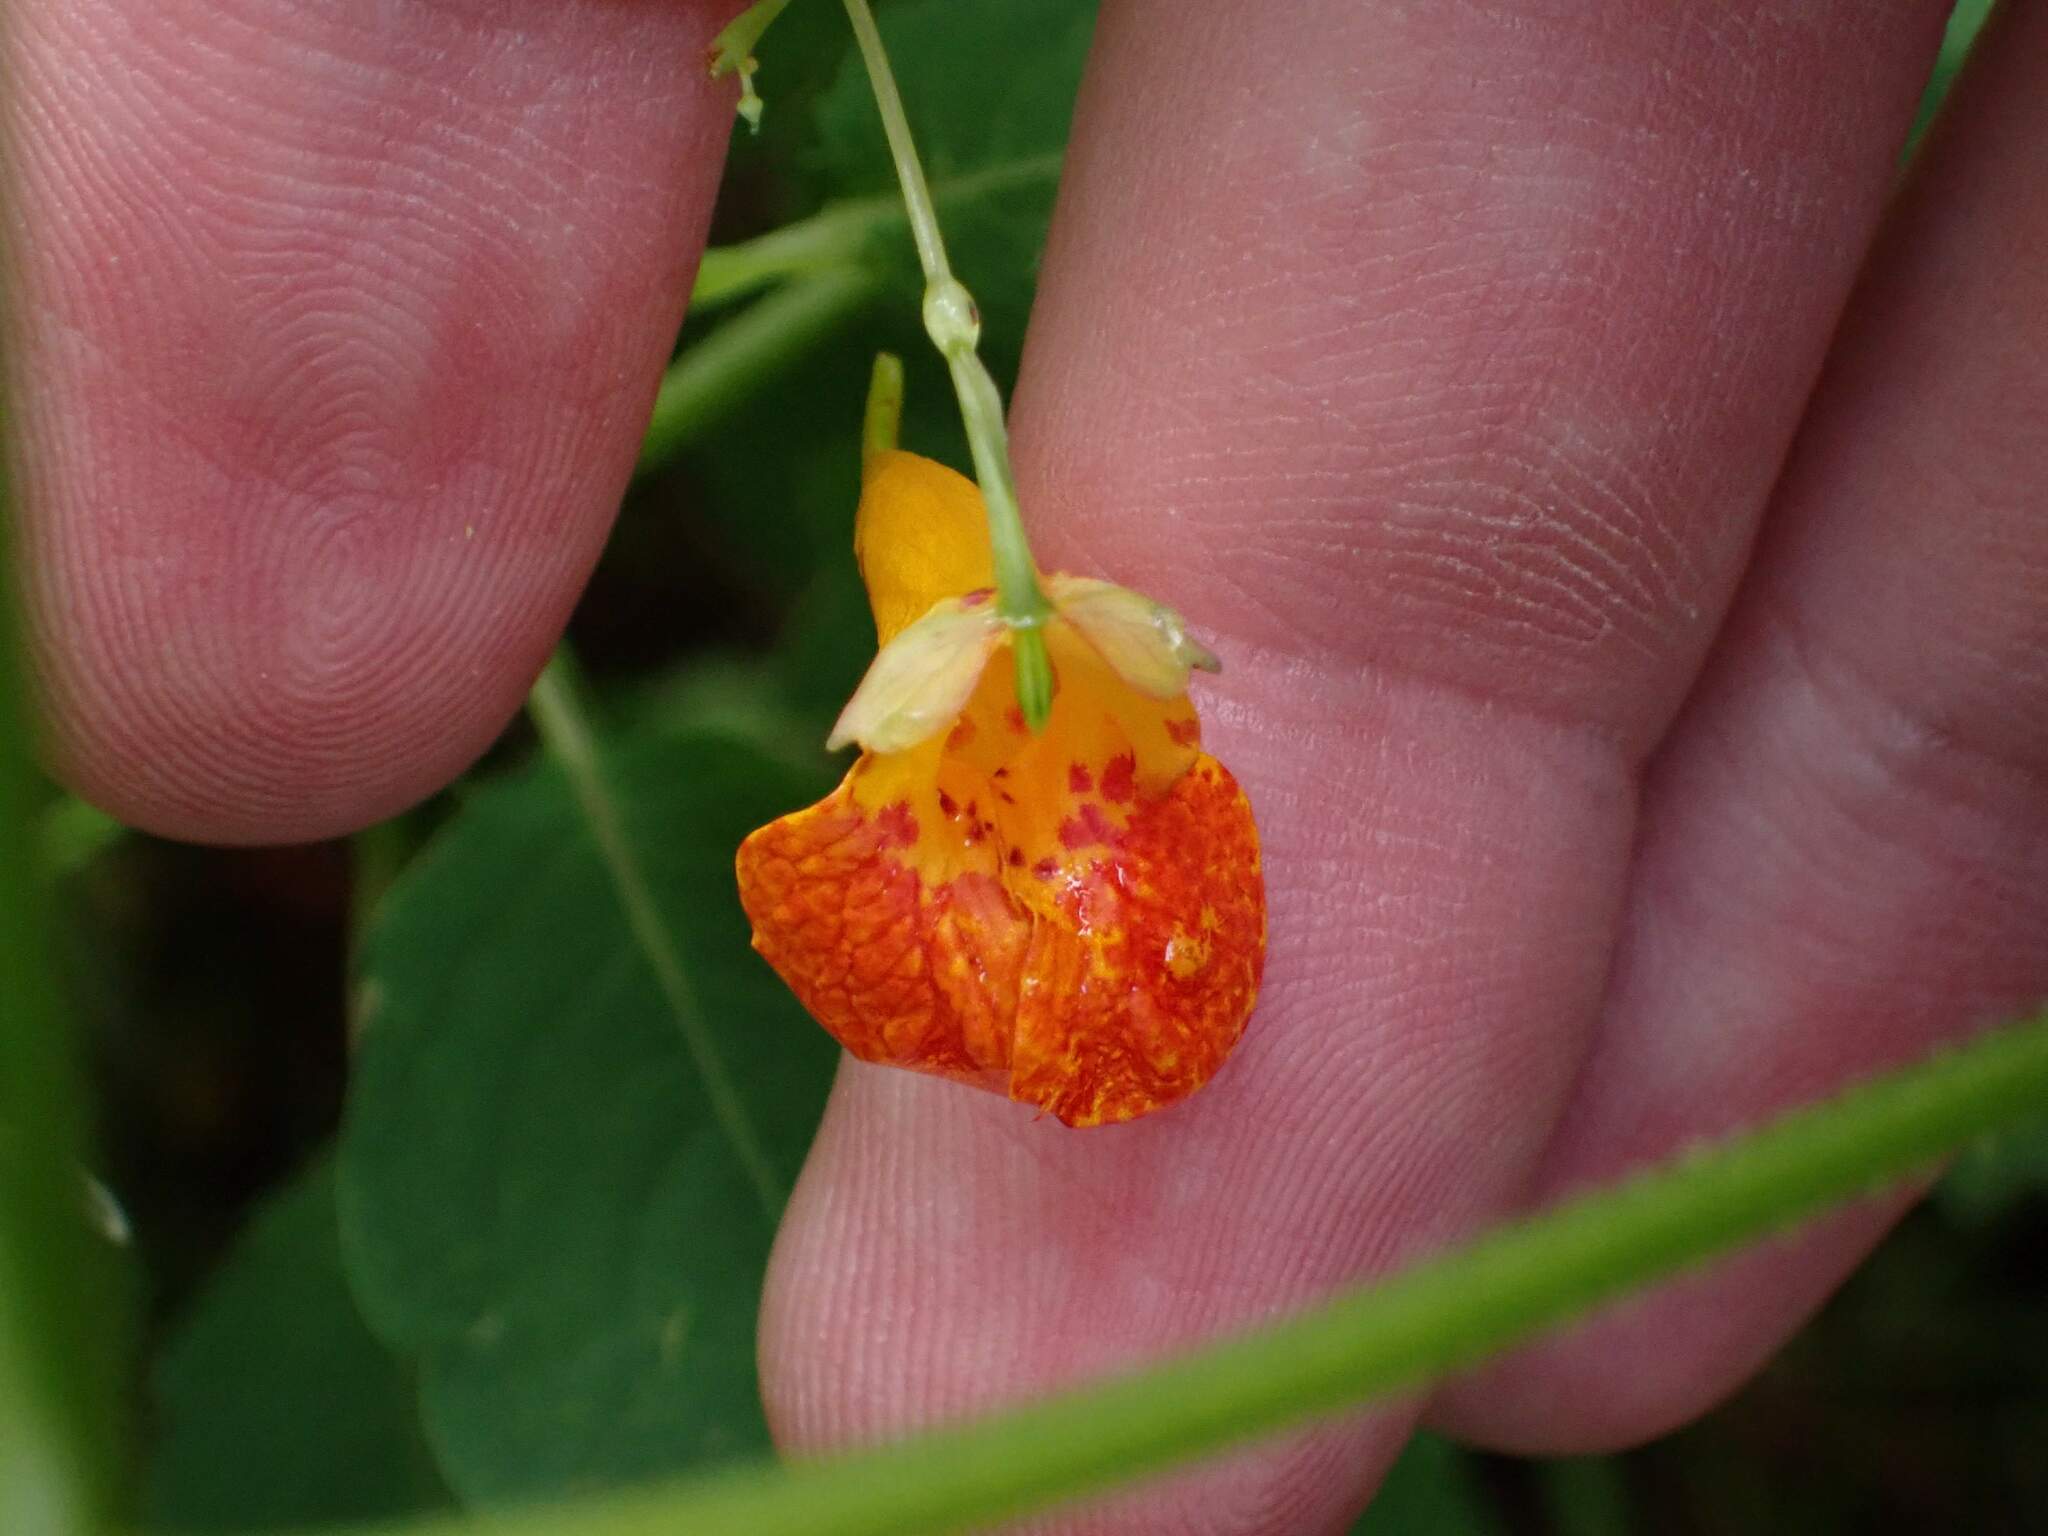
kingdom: Plantae
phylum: Tracheophyta
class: Magnoliopsida
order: Ericales
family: Balsaminaceae
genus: Impatiens
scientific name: Impatiens capensis
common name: Orange balsam
